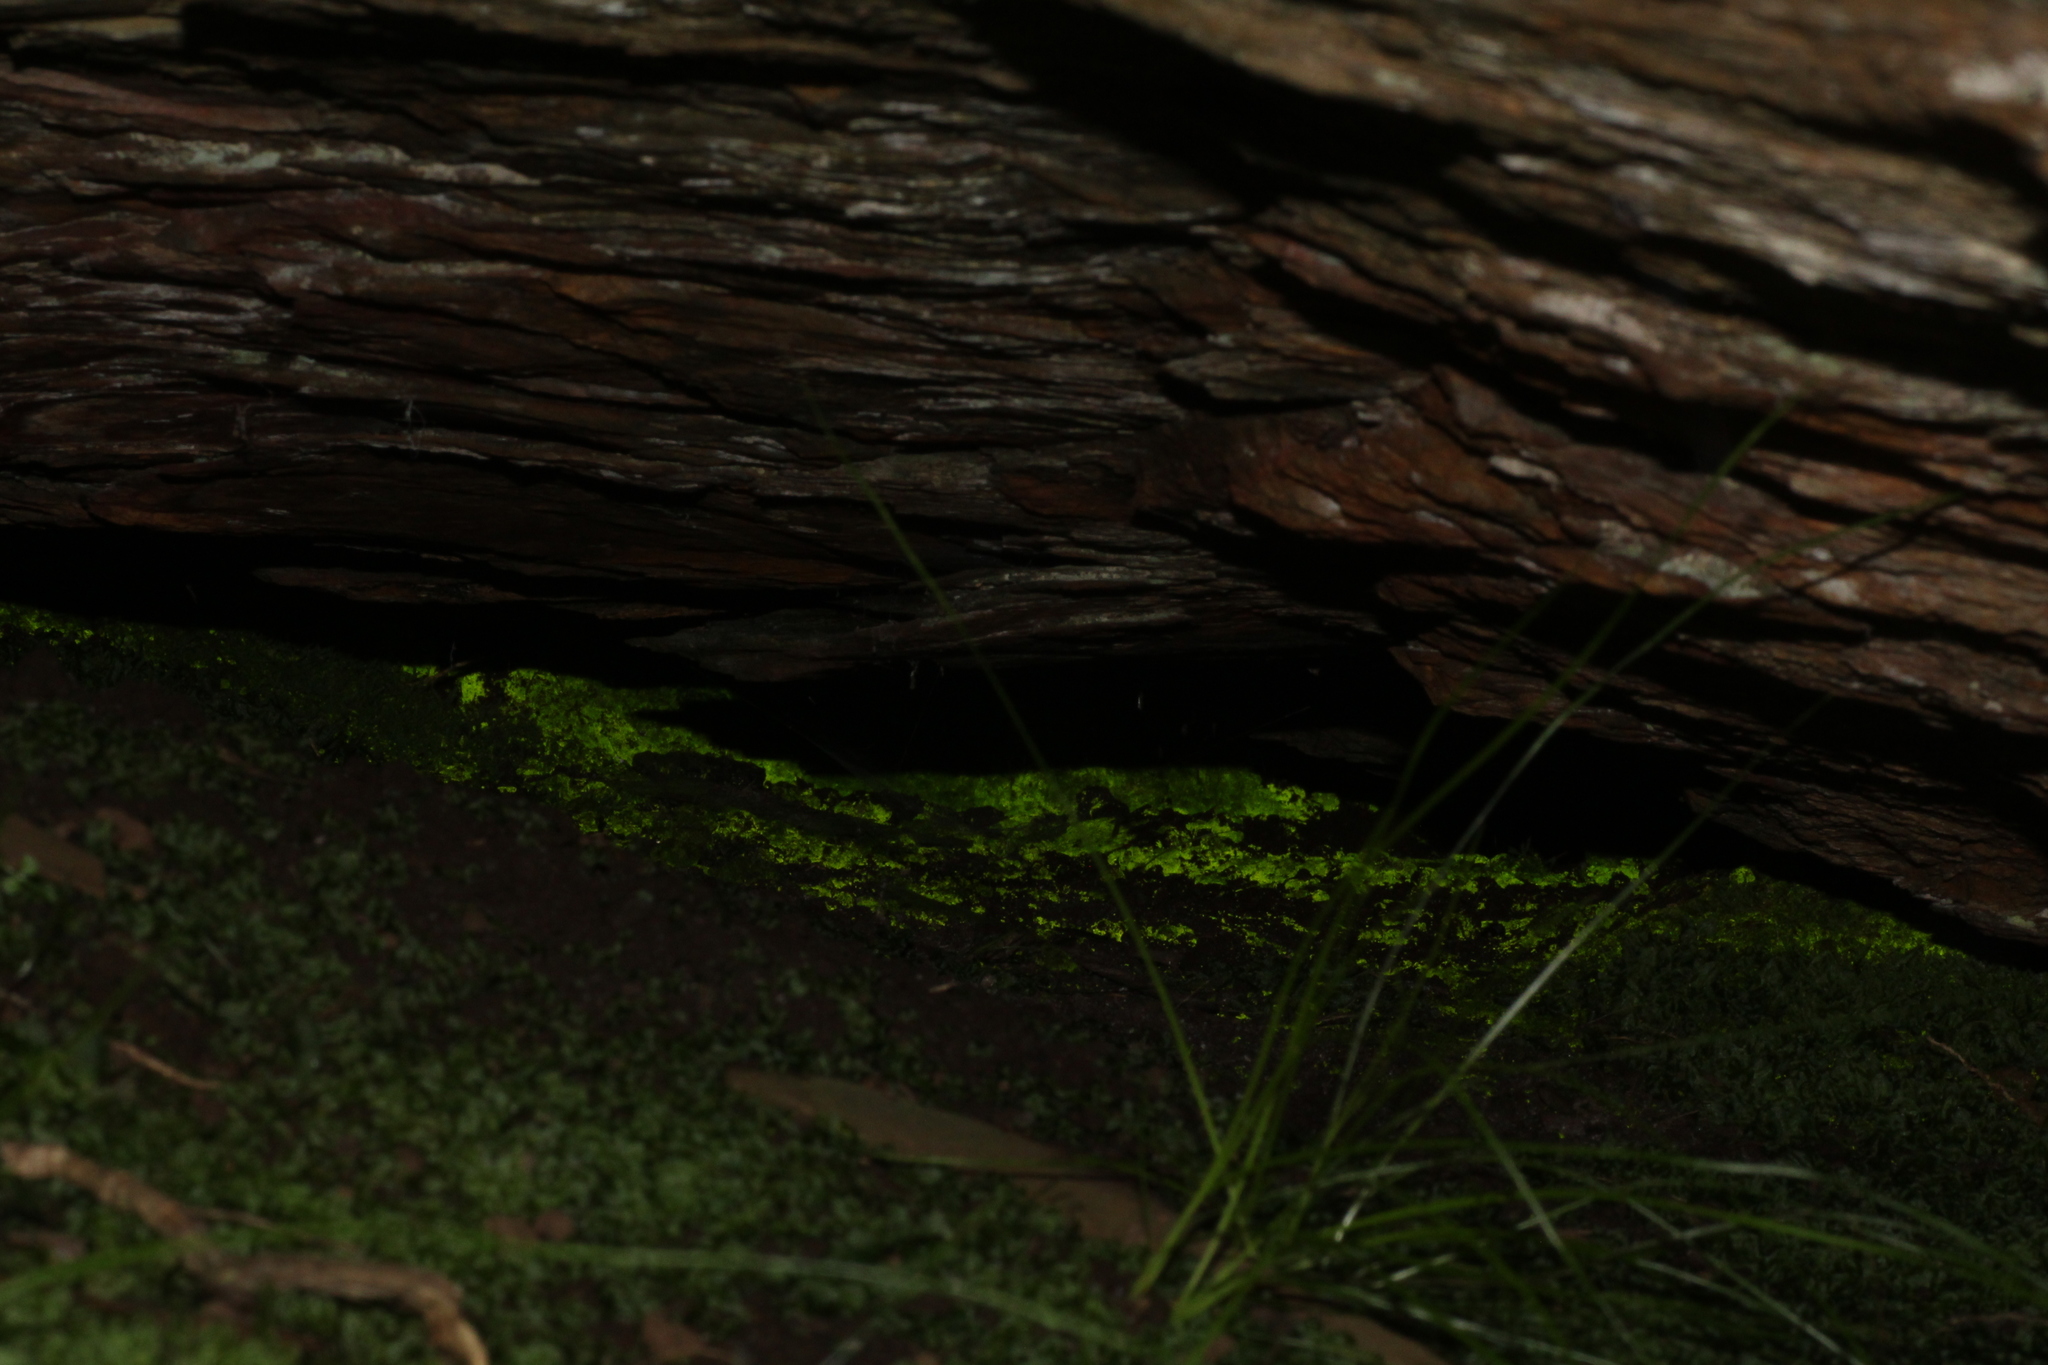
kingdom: Plantae
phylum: Bryophyta
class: Bryopsida
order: Pottiales
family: Mitteniaceae
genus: Mittenia
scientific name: Mittenia plumula
